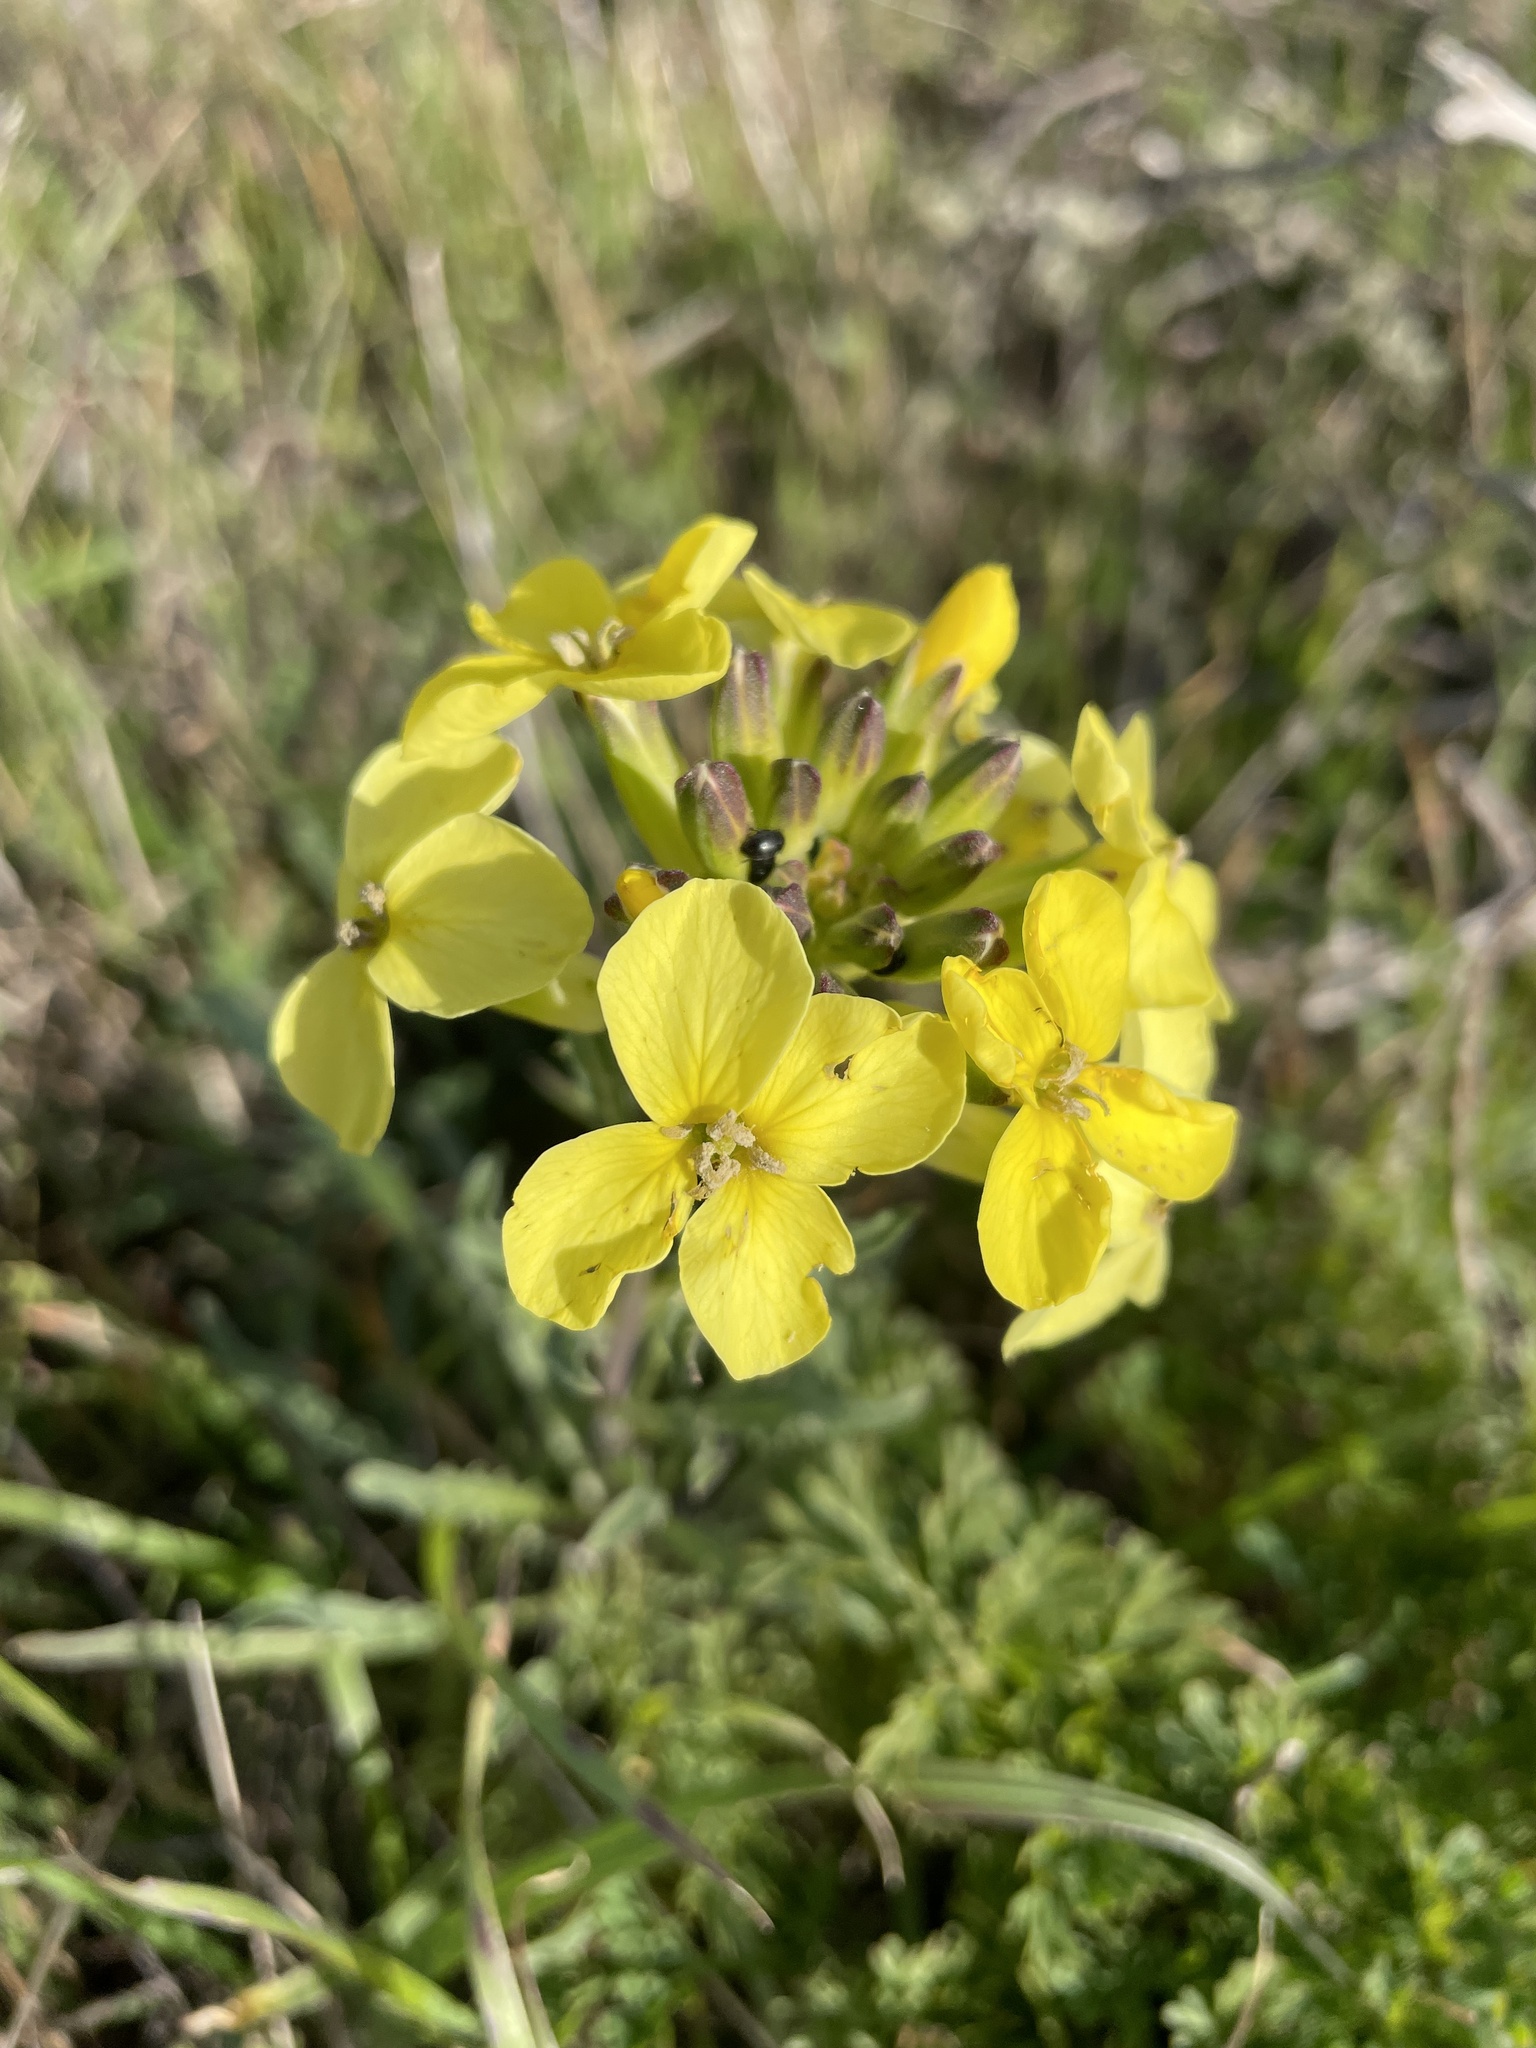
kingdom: Plantae
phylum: Tracheophyta
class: Magnoliopsida
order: Brassicales
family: Brassicaceae
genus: Erysimum
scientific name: Erysimum franciscanum
